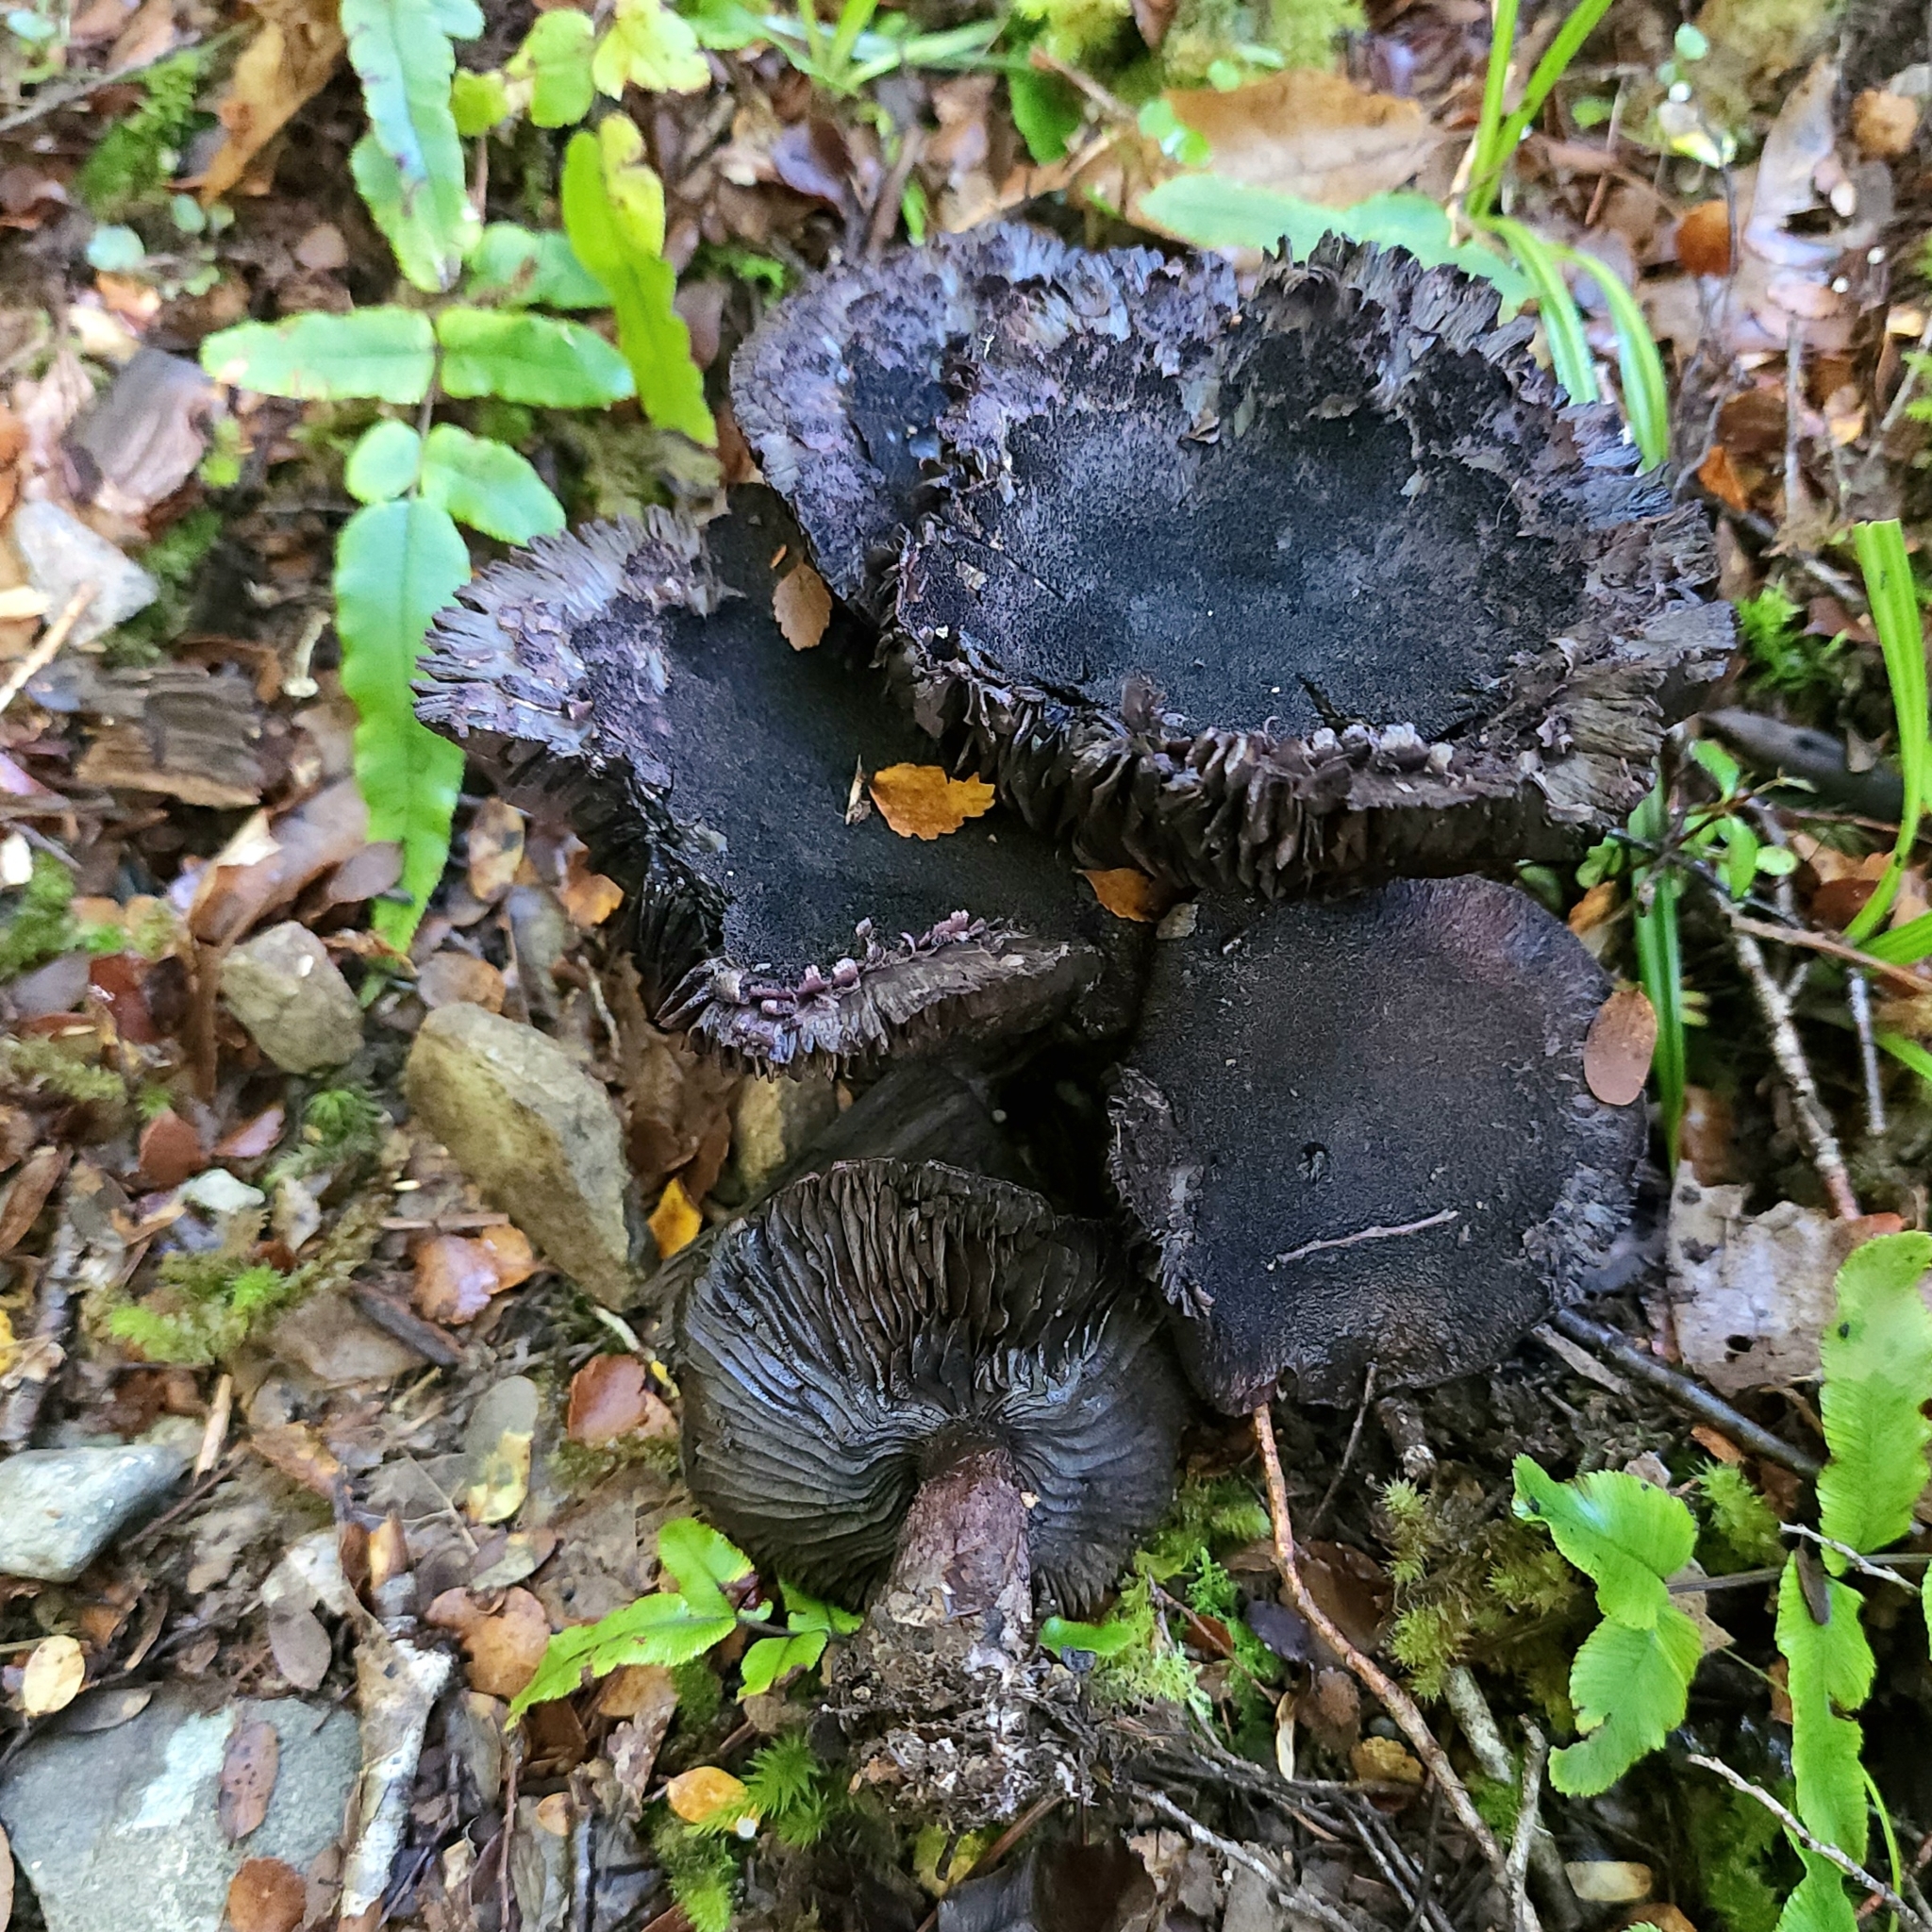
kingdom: Fungi
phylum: Basidiomycota
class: Agaricomycetes
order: Agaricales
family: Cortinariaceae
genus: Cortinarius
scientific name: Cortinarius carneipallidus
